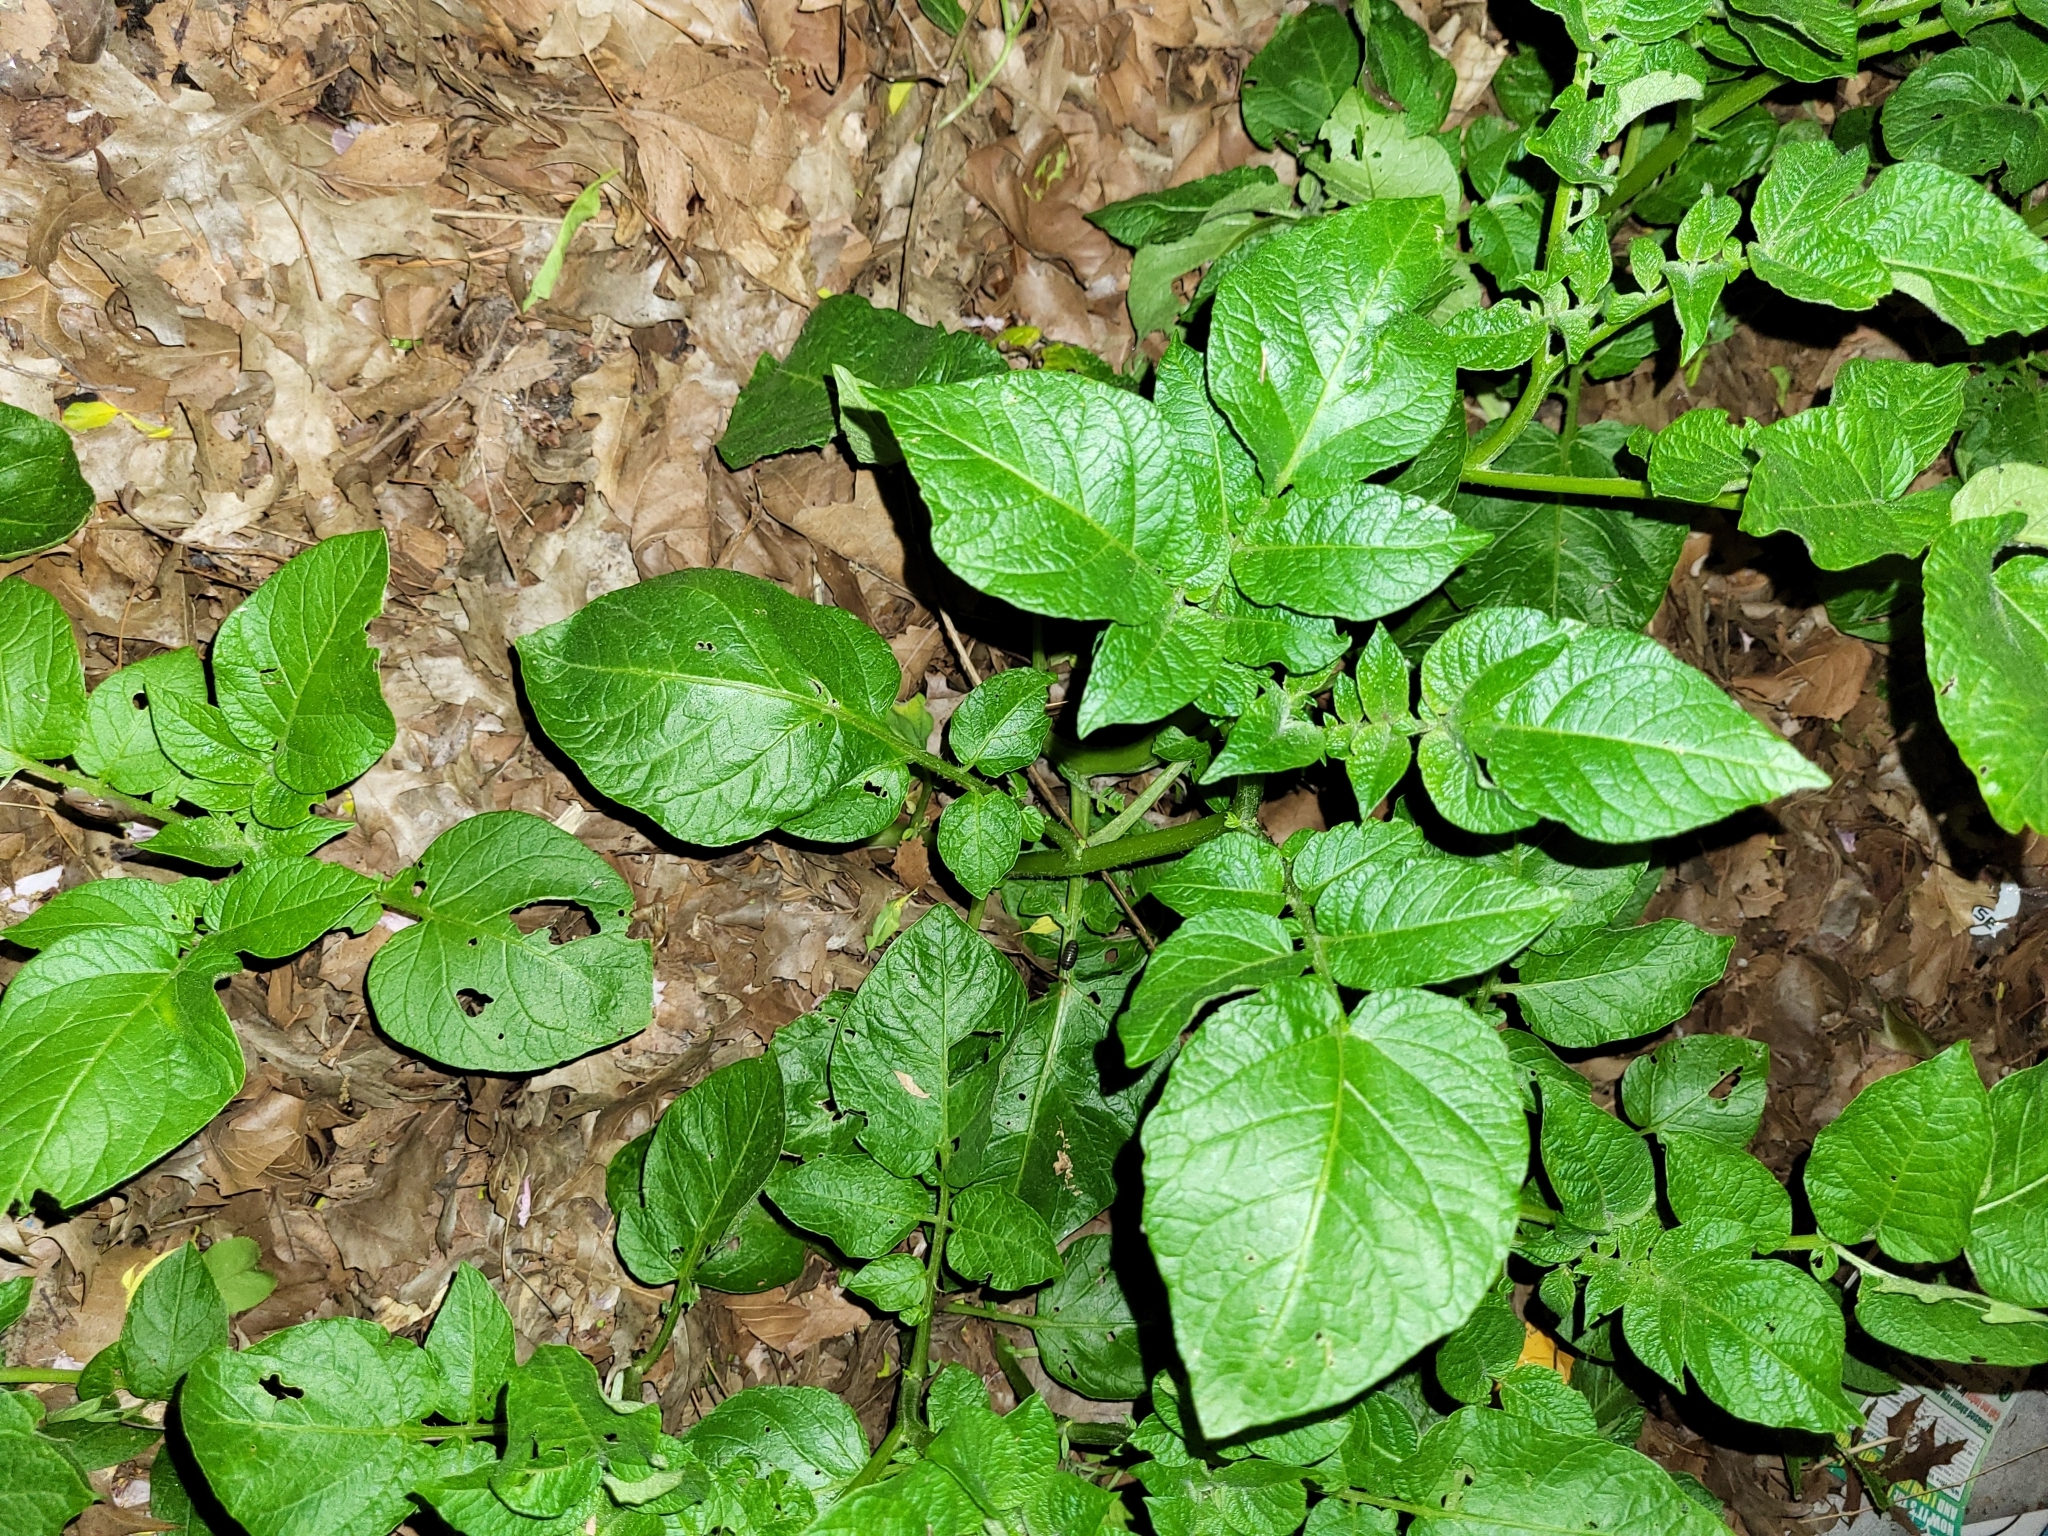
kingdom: Plantae
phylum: Tracheophyta
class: Magnoliopsida
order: Solanales
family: Solanaceae
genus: Solanum
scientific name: Solanum tuberosum
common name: Potato
